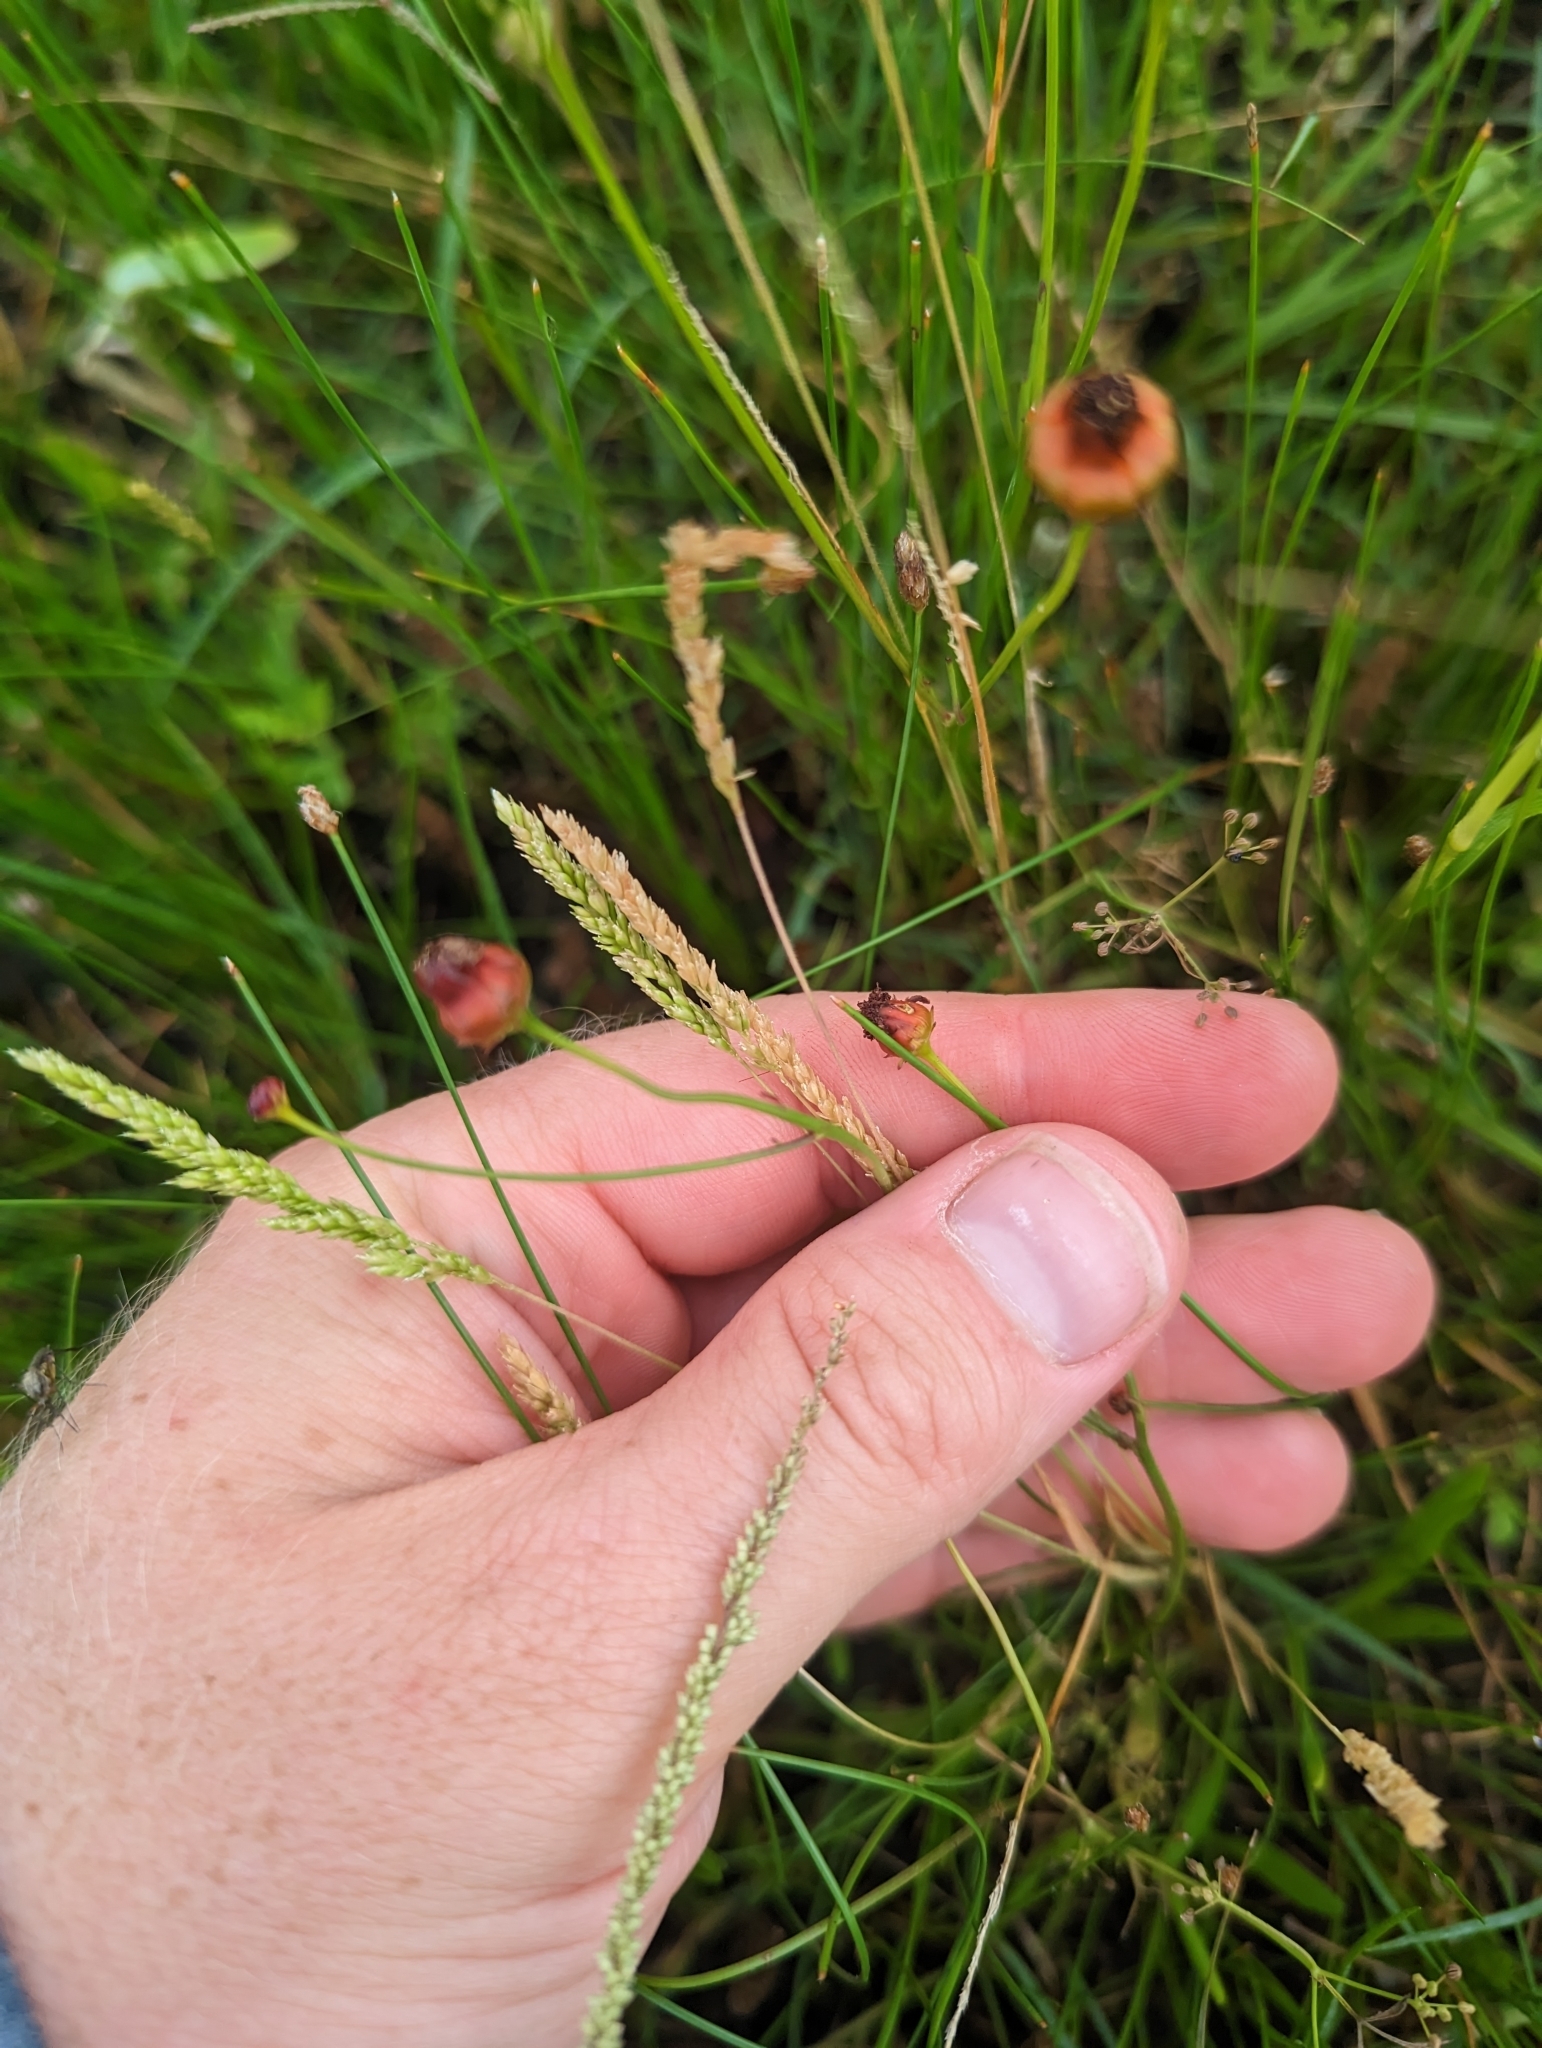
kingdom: Plantae
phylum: Tracheophyta
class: Liliopsida
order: Poales
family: Poaceae
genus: Sphenopholis
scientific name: Sphenopholis obtusata
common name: Prairie grass
